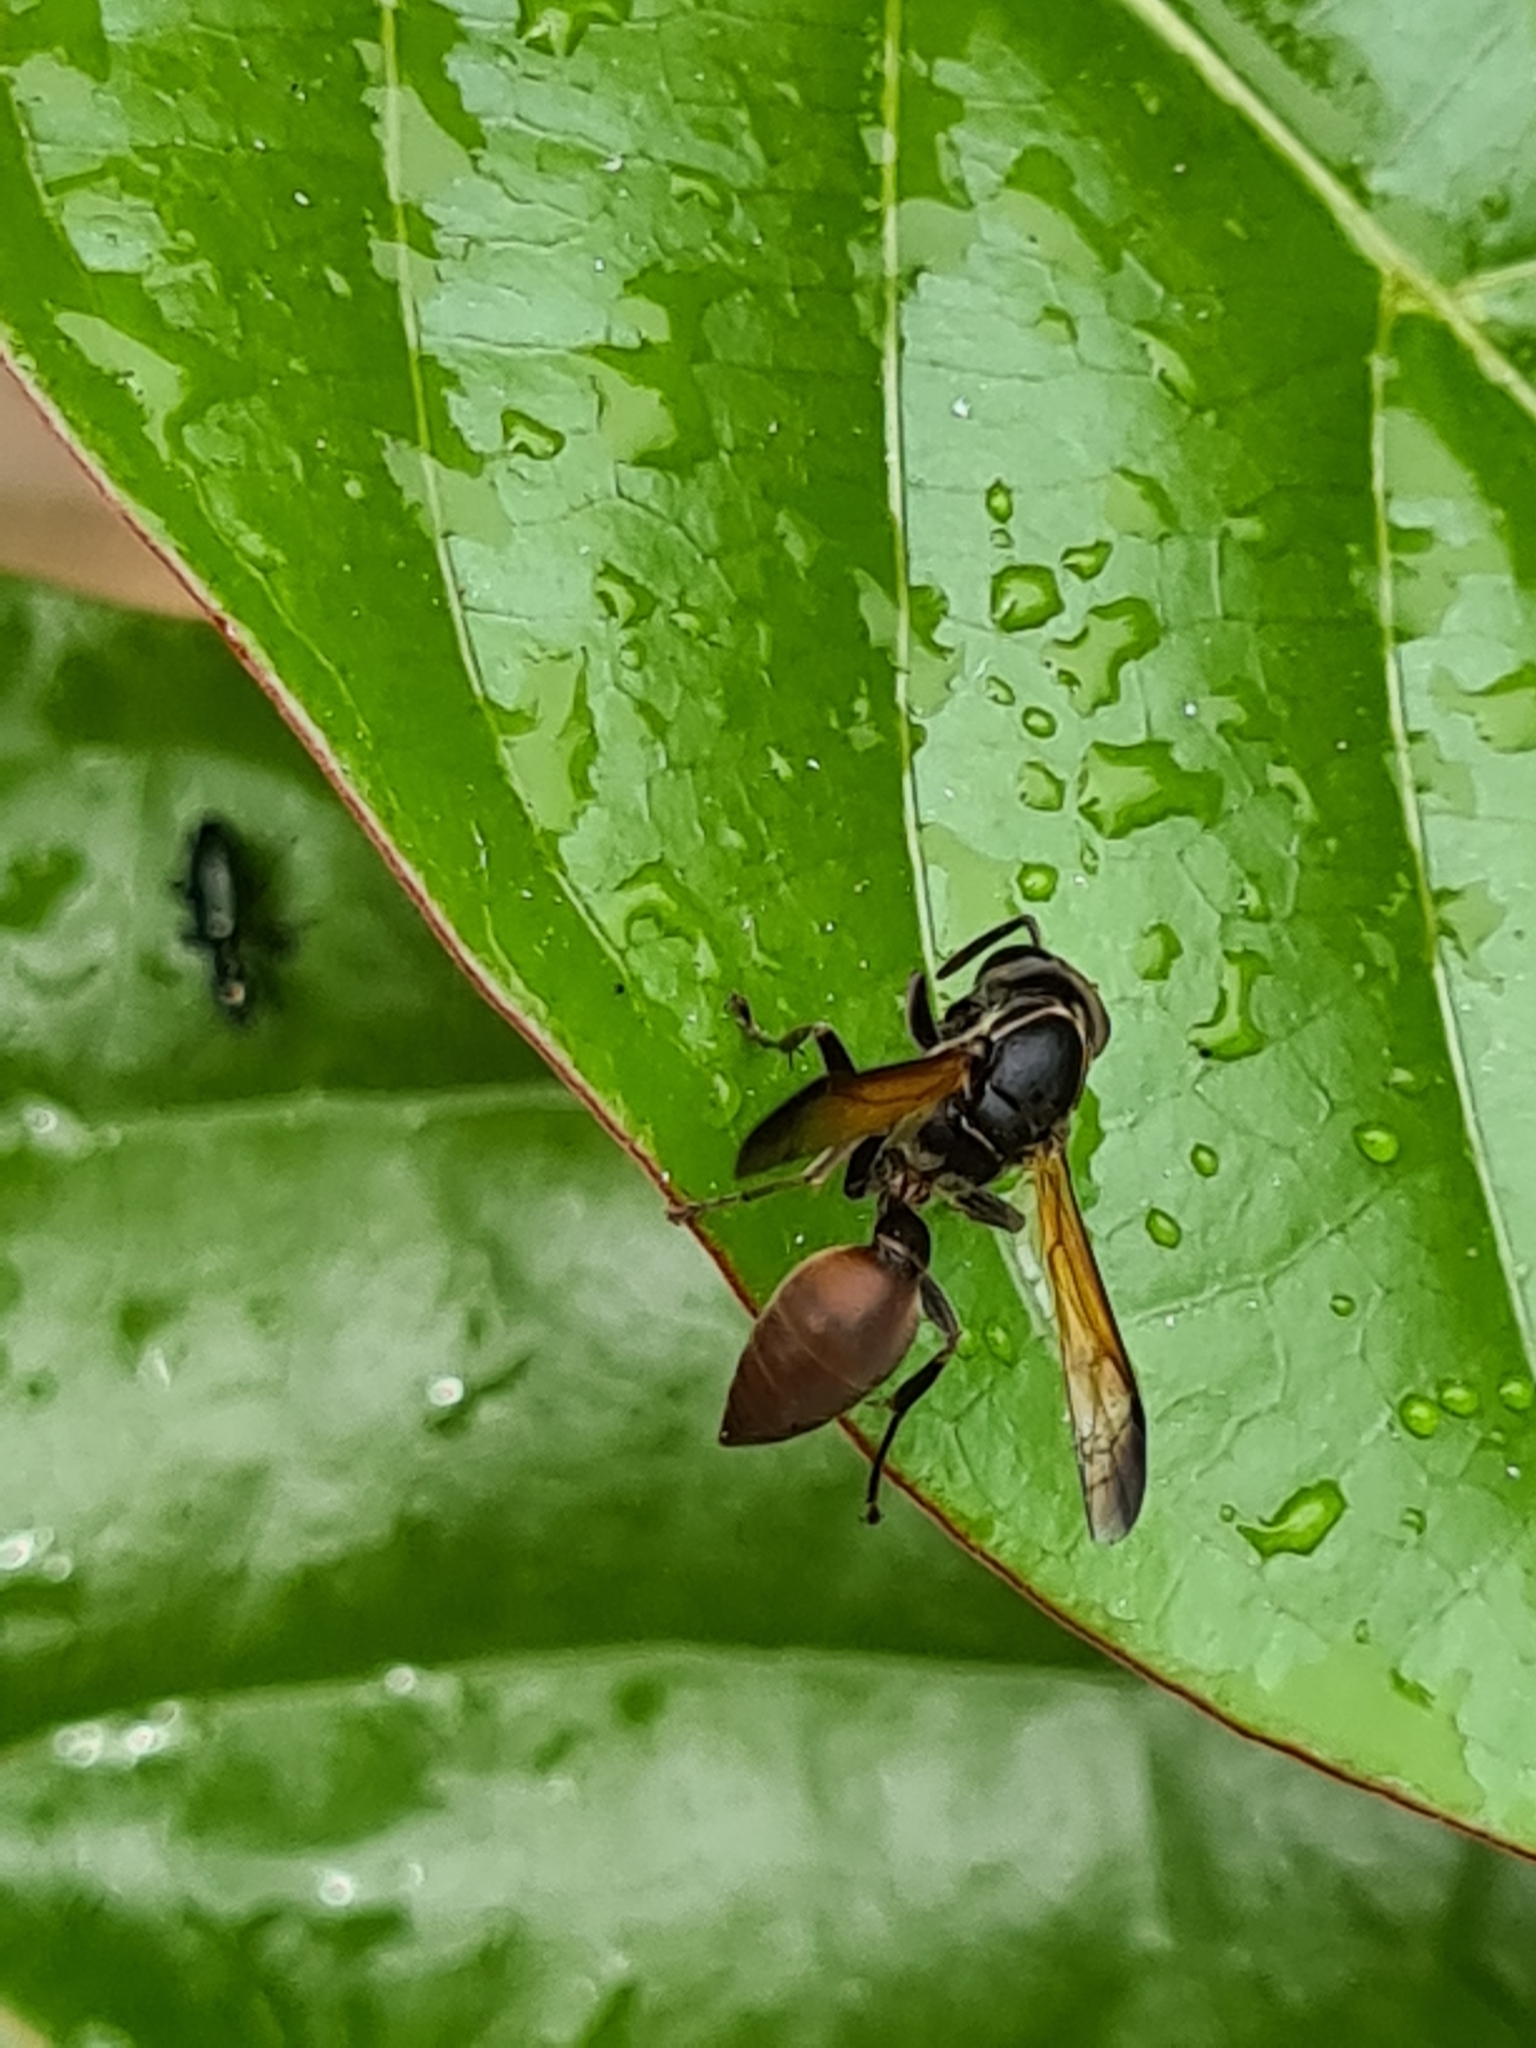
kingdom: Animalia
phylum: Arthropoda
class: Insecta
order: Hymenoptera
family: Eumenidae
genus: Polybia
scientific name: Polybia rejecta
